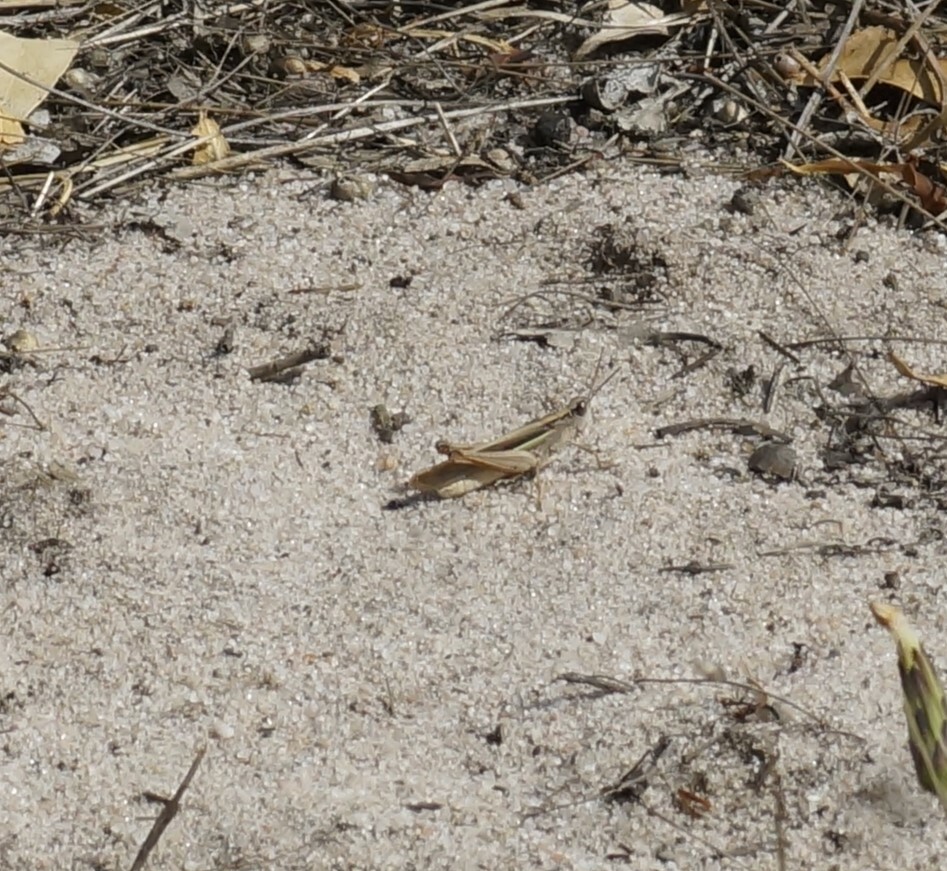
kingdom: Animalia
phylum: Arthropoda
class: Insecta
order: Orthoptera
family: Acrididae
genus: Schizobothrus
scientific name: Schizobothrus flavovittatus
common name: Disappearing grasshopper
